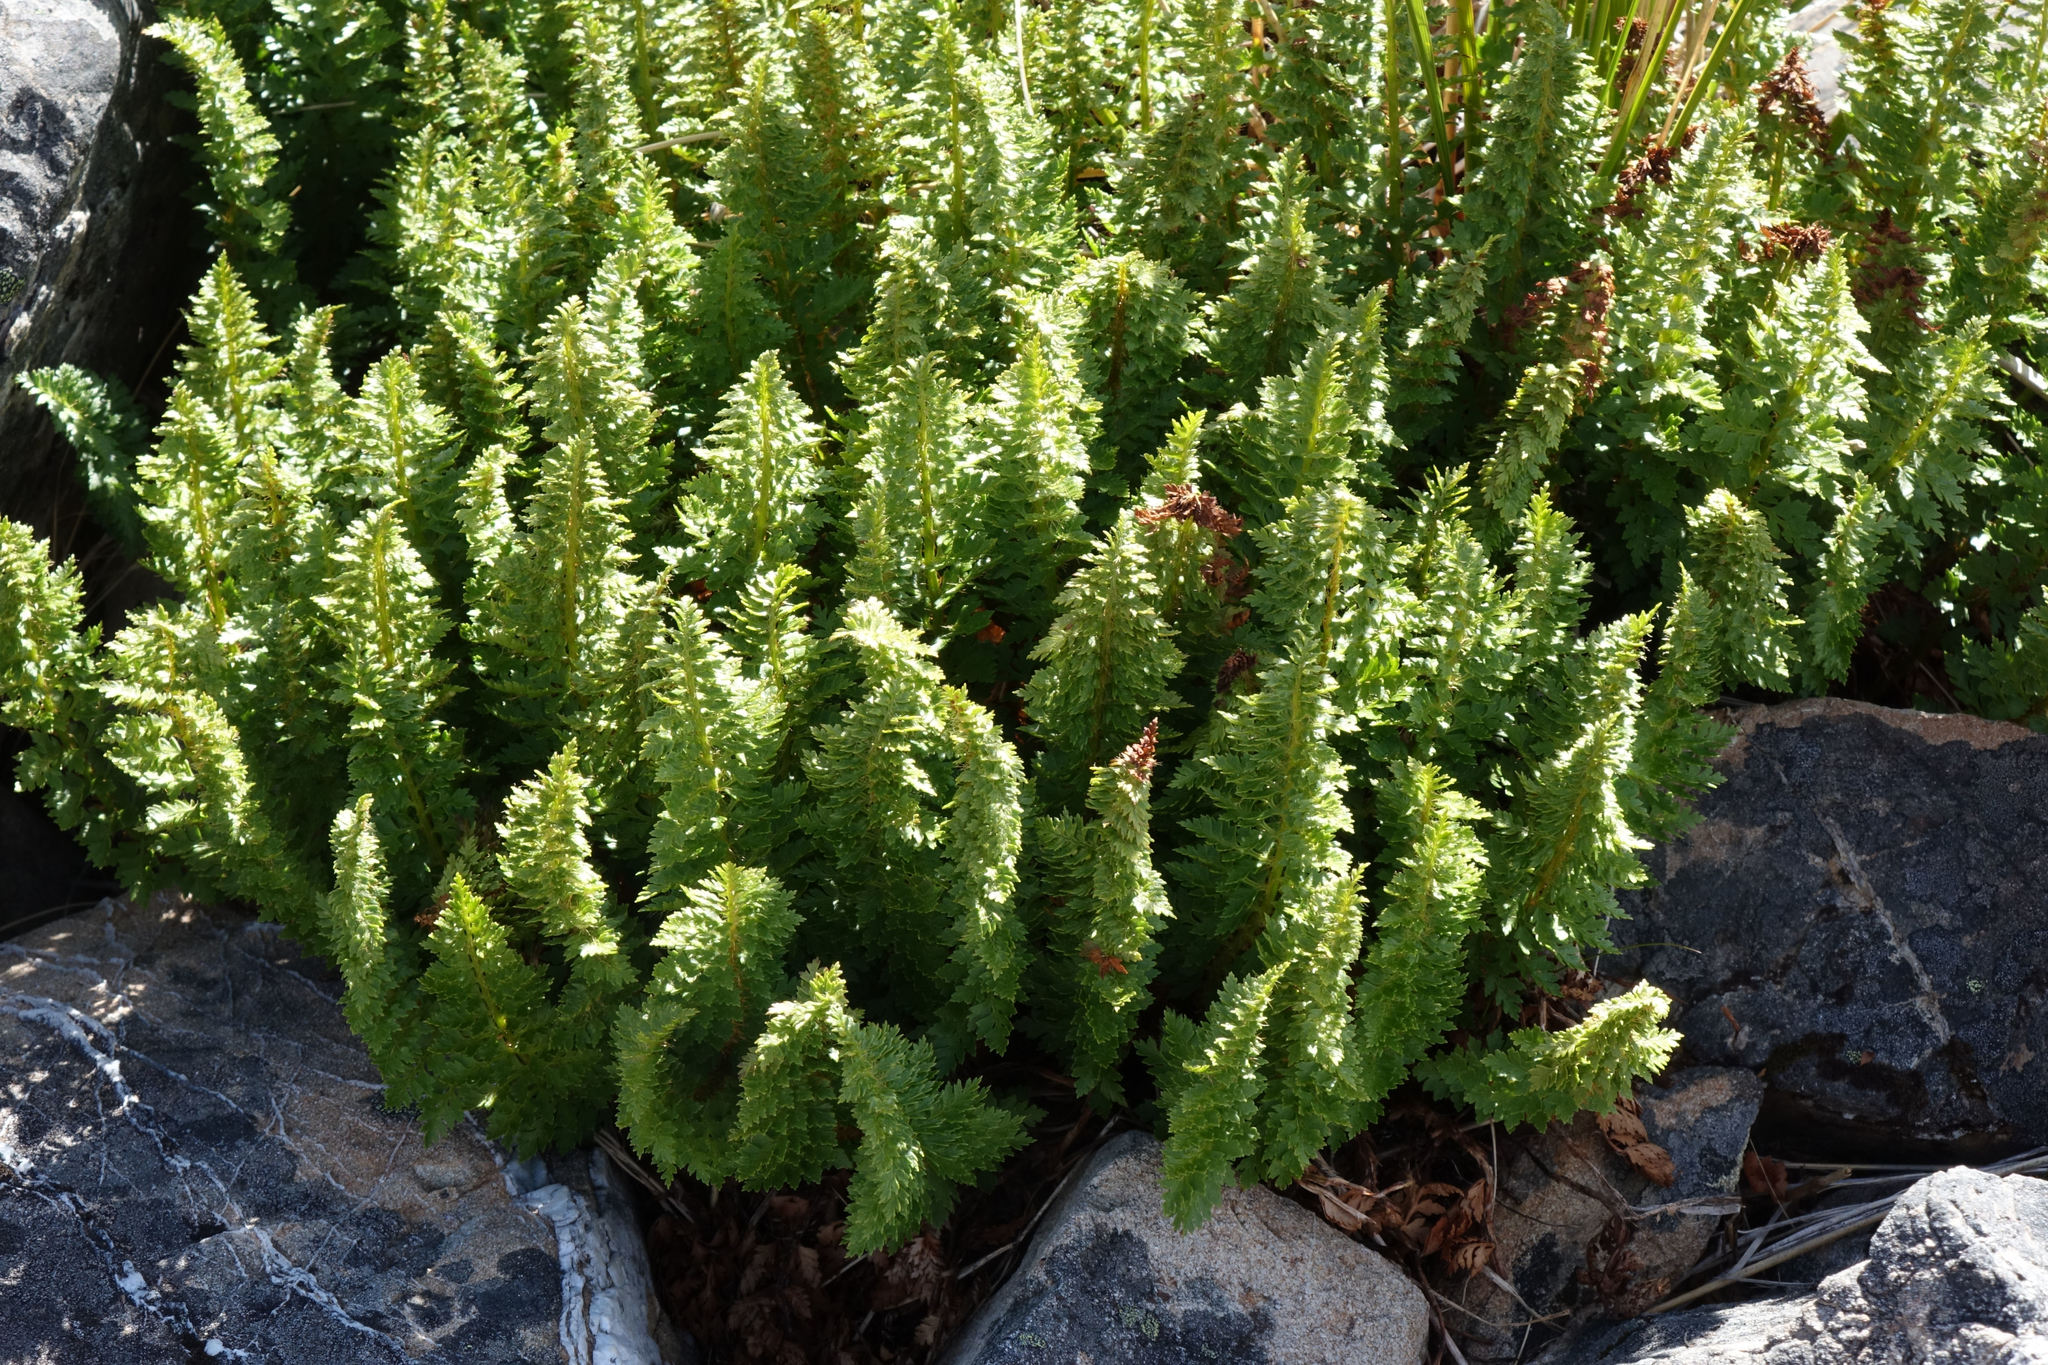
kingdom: Plantae
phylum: Tracheophyta
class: Polypodiopsida
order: Polypodiales
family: Dryopteridaceae
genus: Polystichum
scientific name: Polystichum cystostegia
